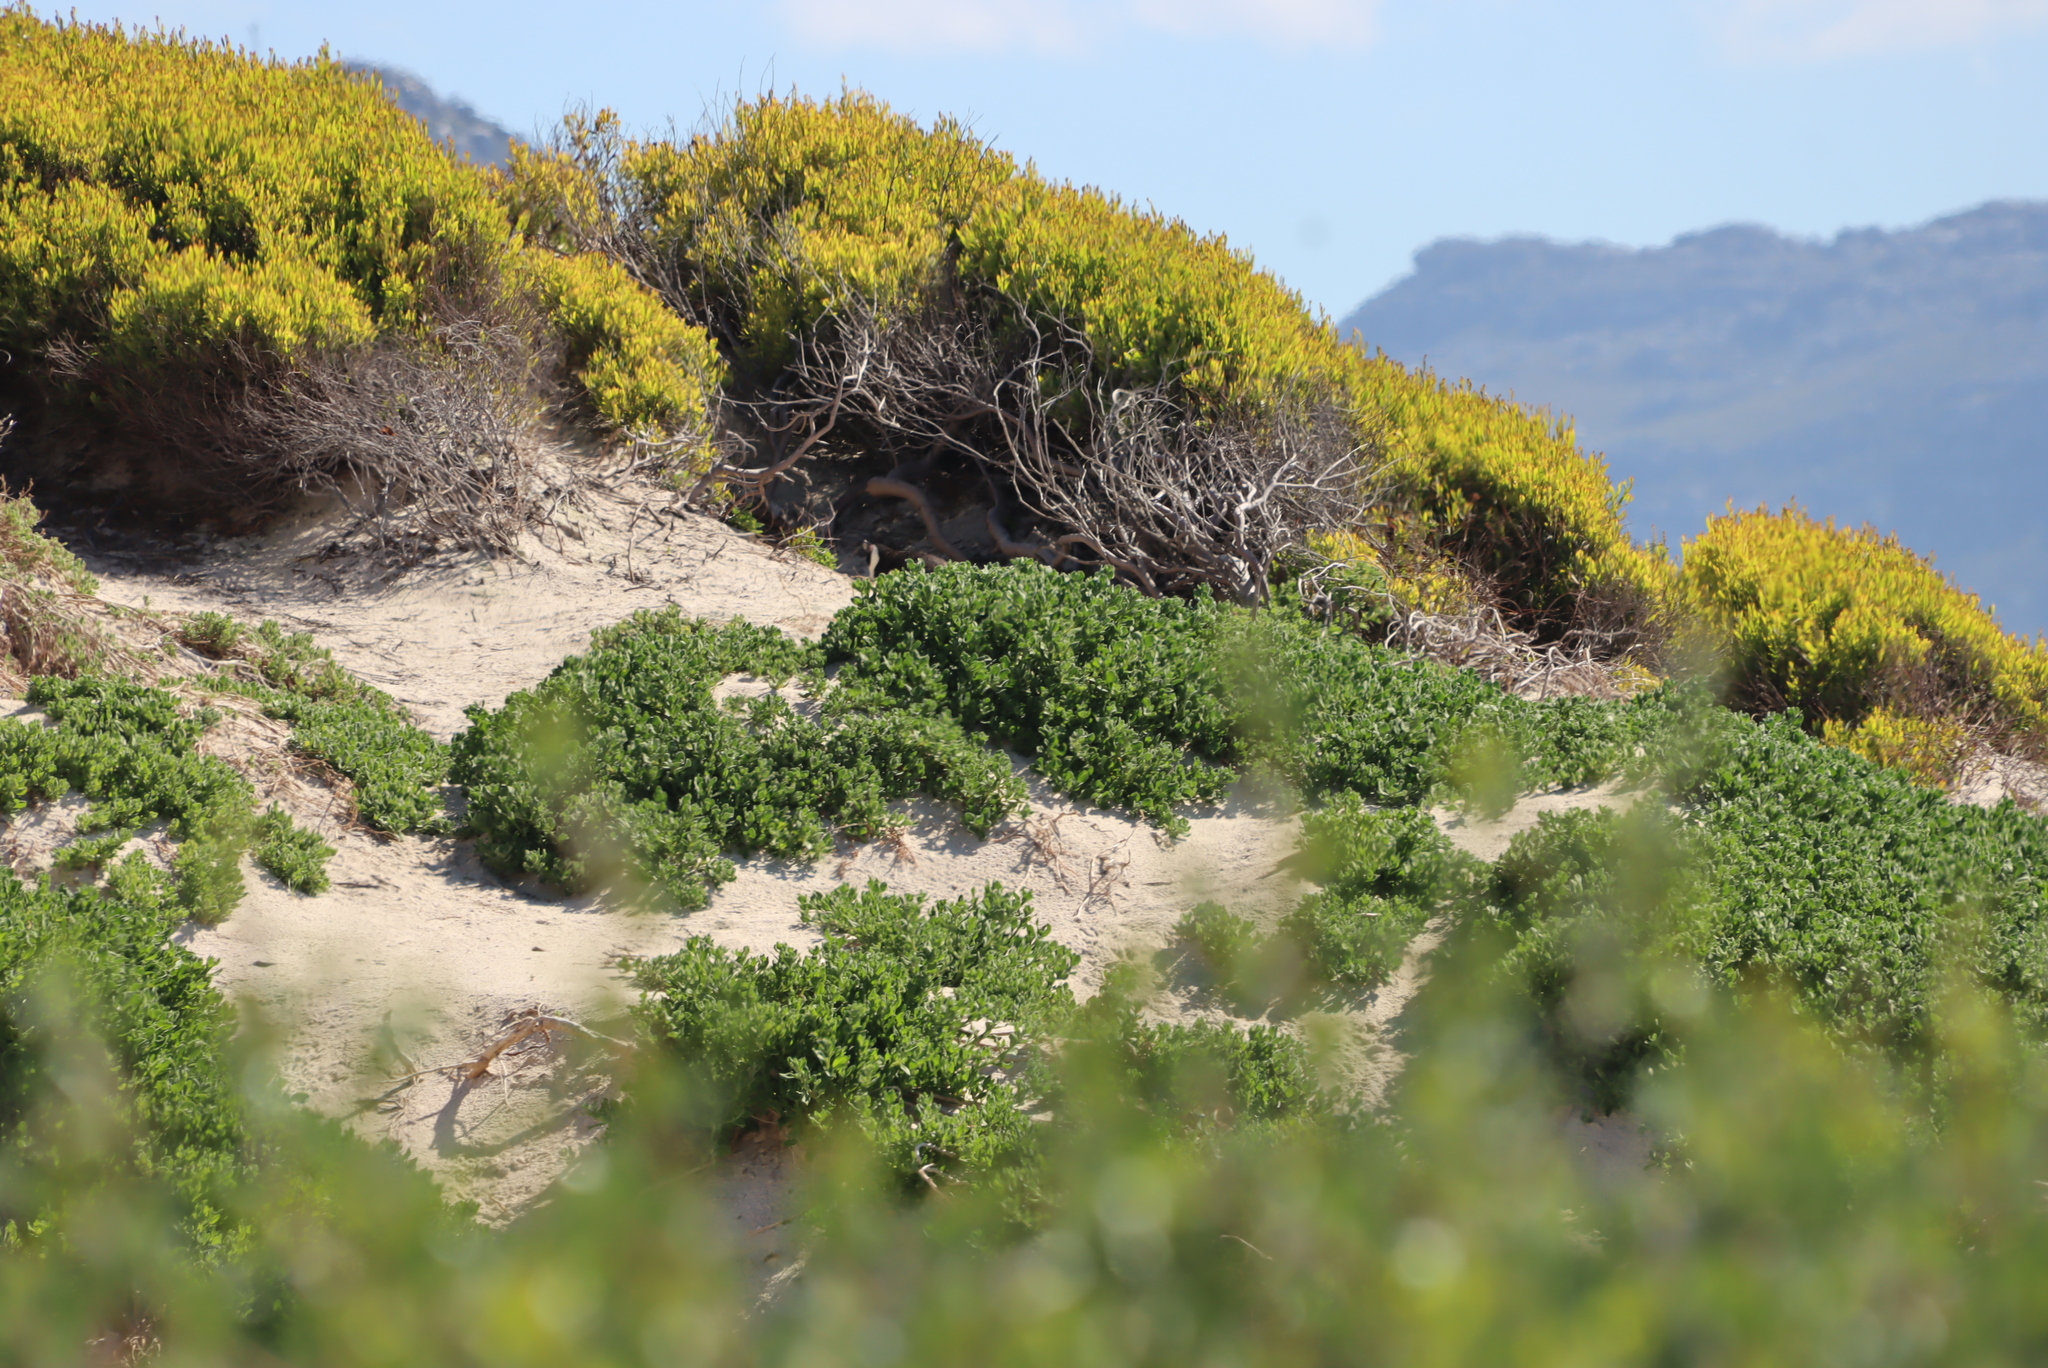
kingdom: Plantae
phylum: Tracheophyta
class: Magnoliopsida
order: Fabales
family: Fabaceae
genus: Acacia
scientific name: Acacia cyclops
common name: Coastal wattle
